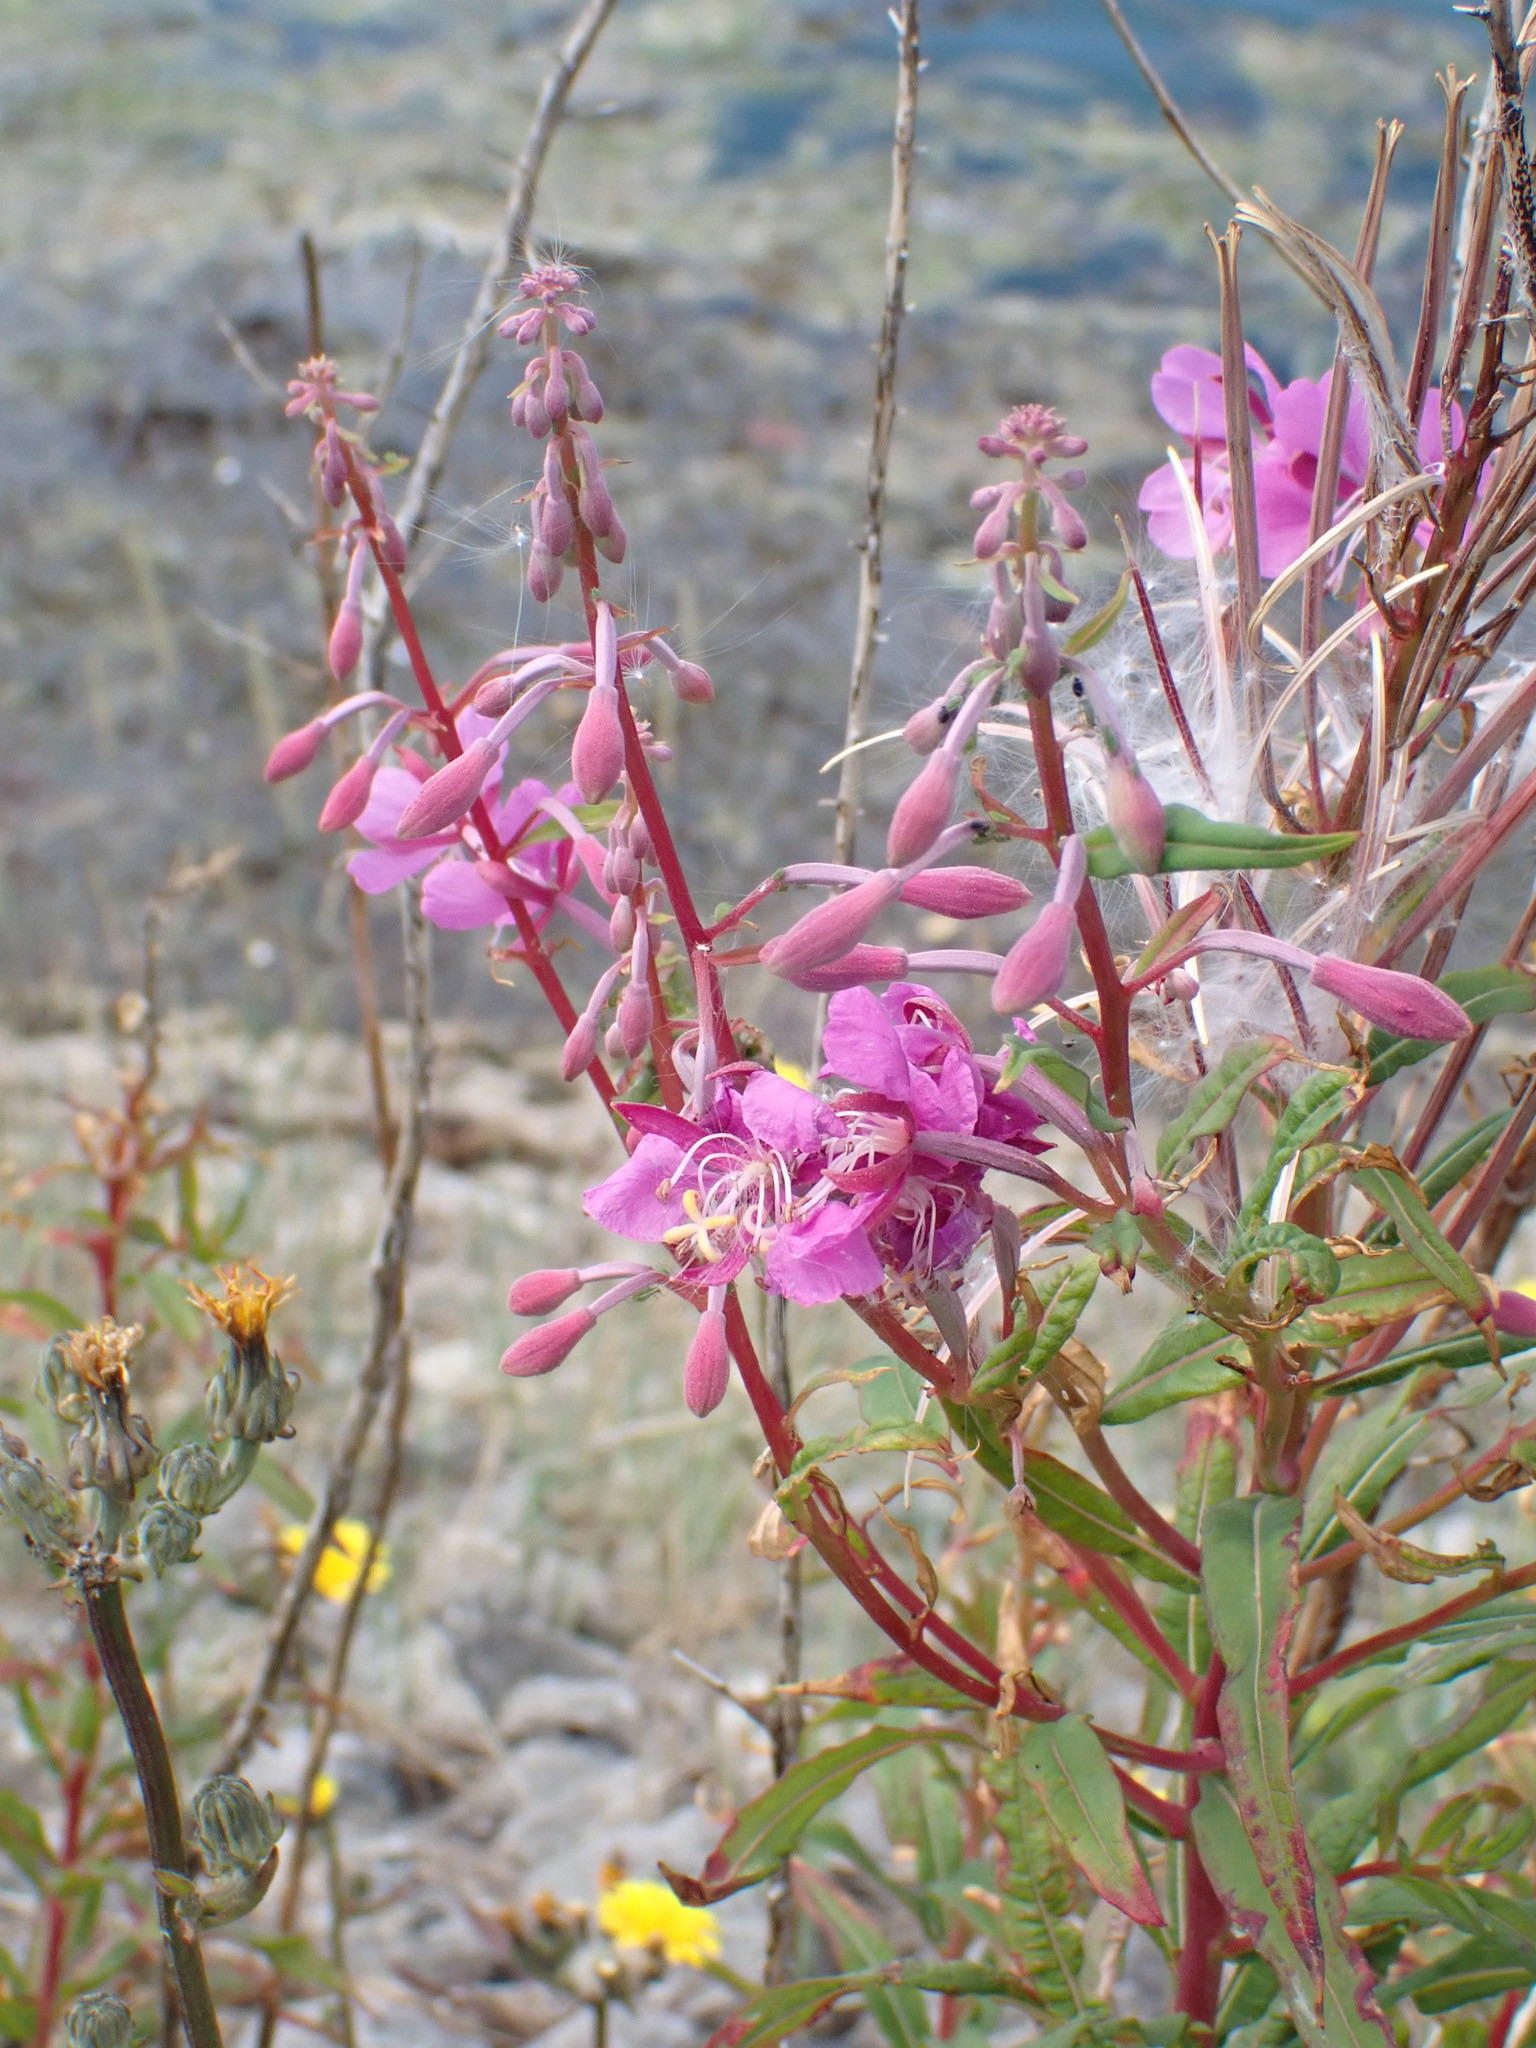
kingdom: Plantae
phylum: Tracheophyta
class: Magnoliopsida
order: Myrtales
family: Onagraceae
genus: Chamaenerion
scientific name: Chamaenerion angustifolium
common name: Fireweed
